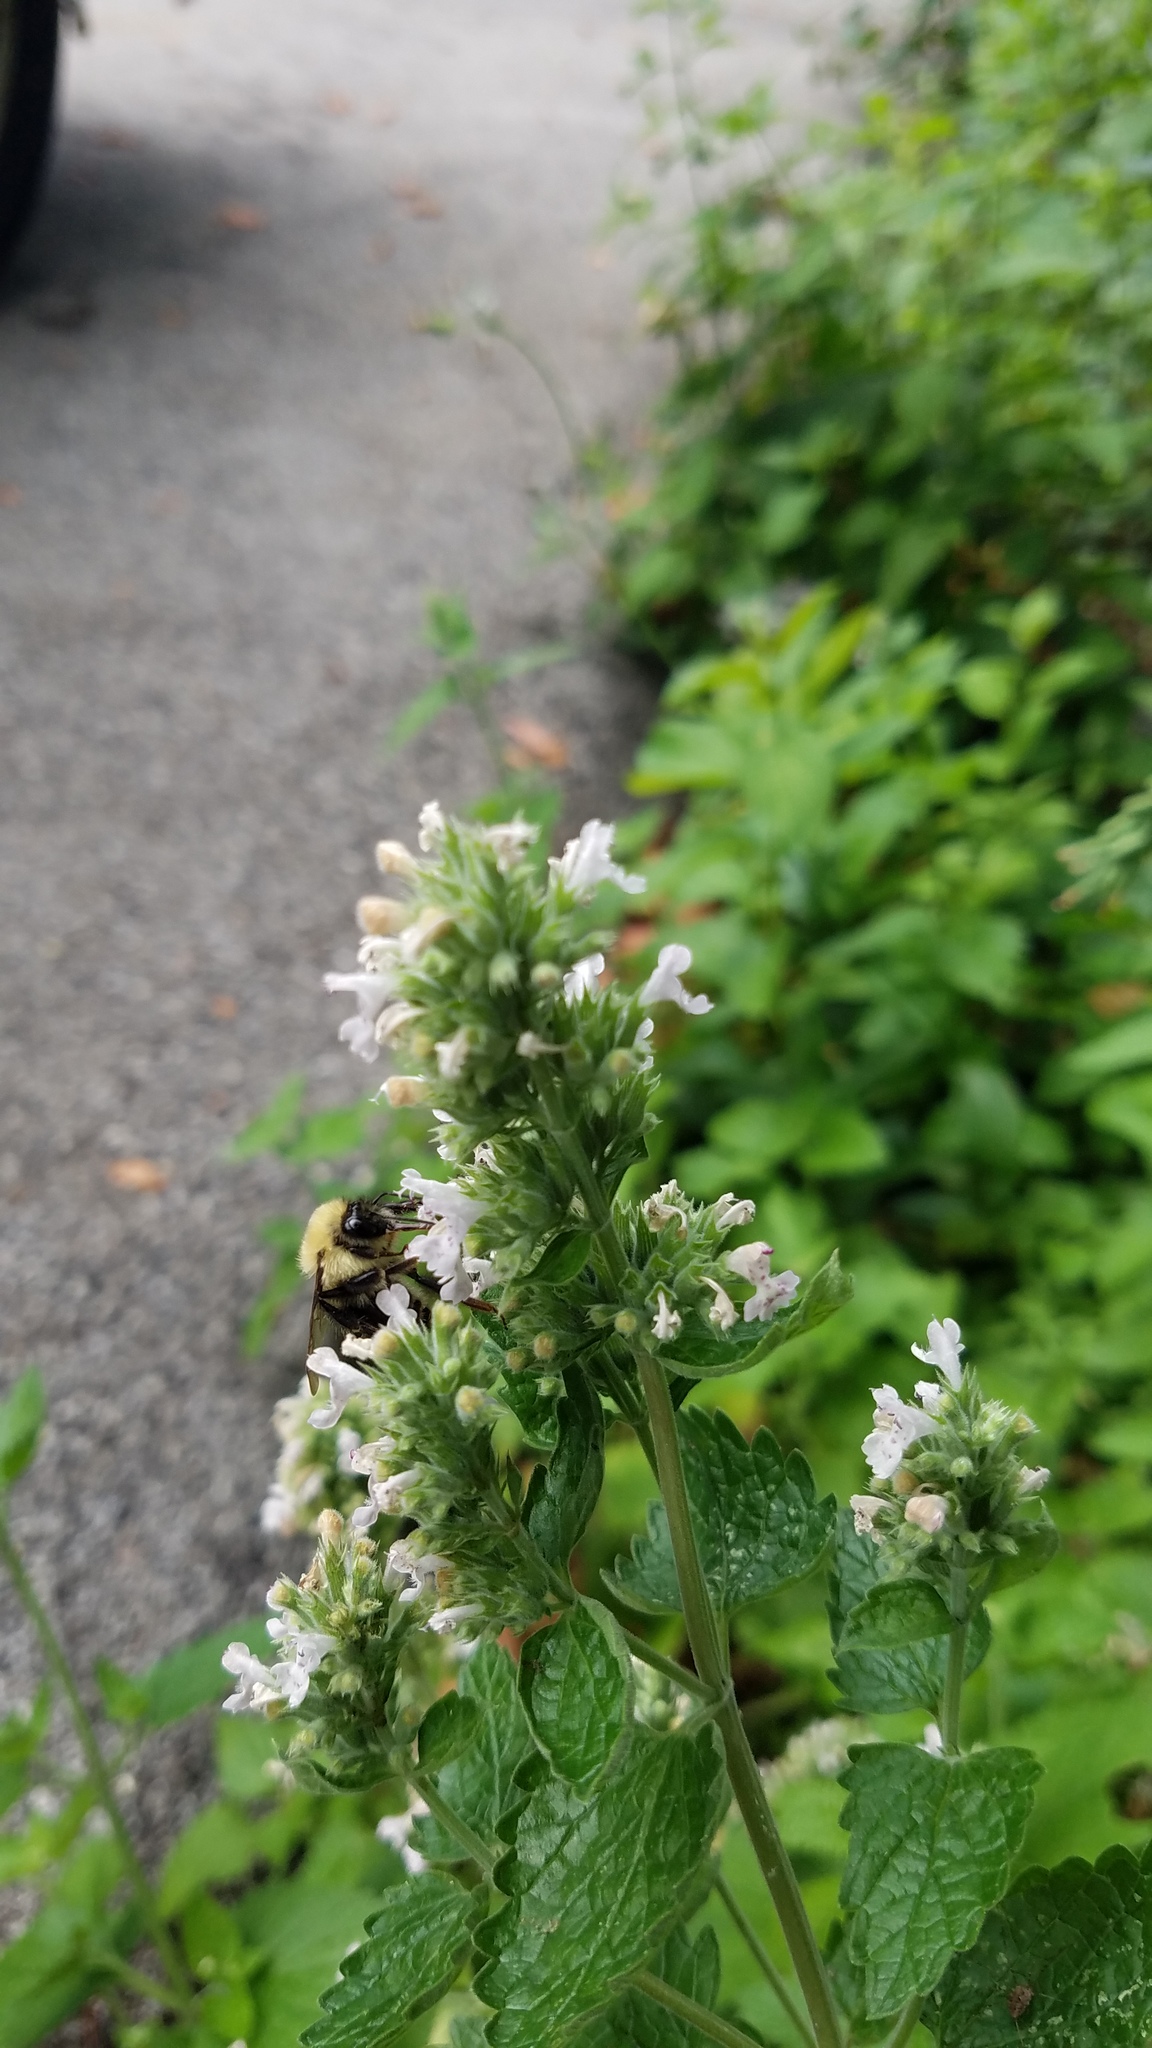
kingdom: Animalia
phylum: Arthropoda
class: Insecta
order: Hymenoptera
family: Apidae
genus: Bombus
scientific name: Bombus bimaculatus
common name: Two-spotted bumble bee
